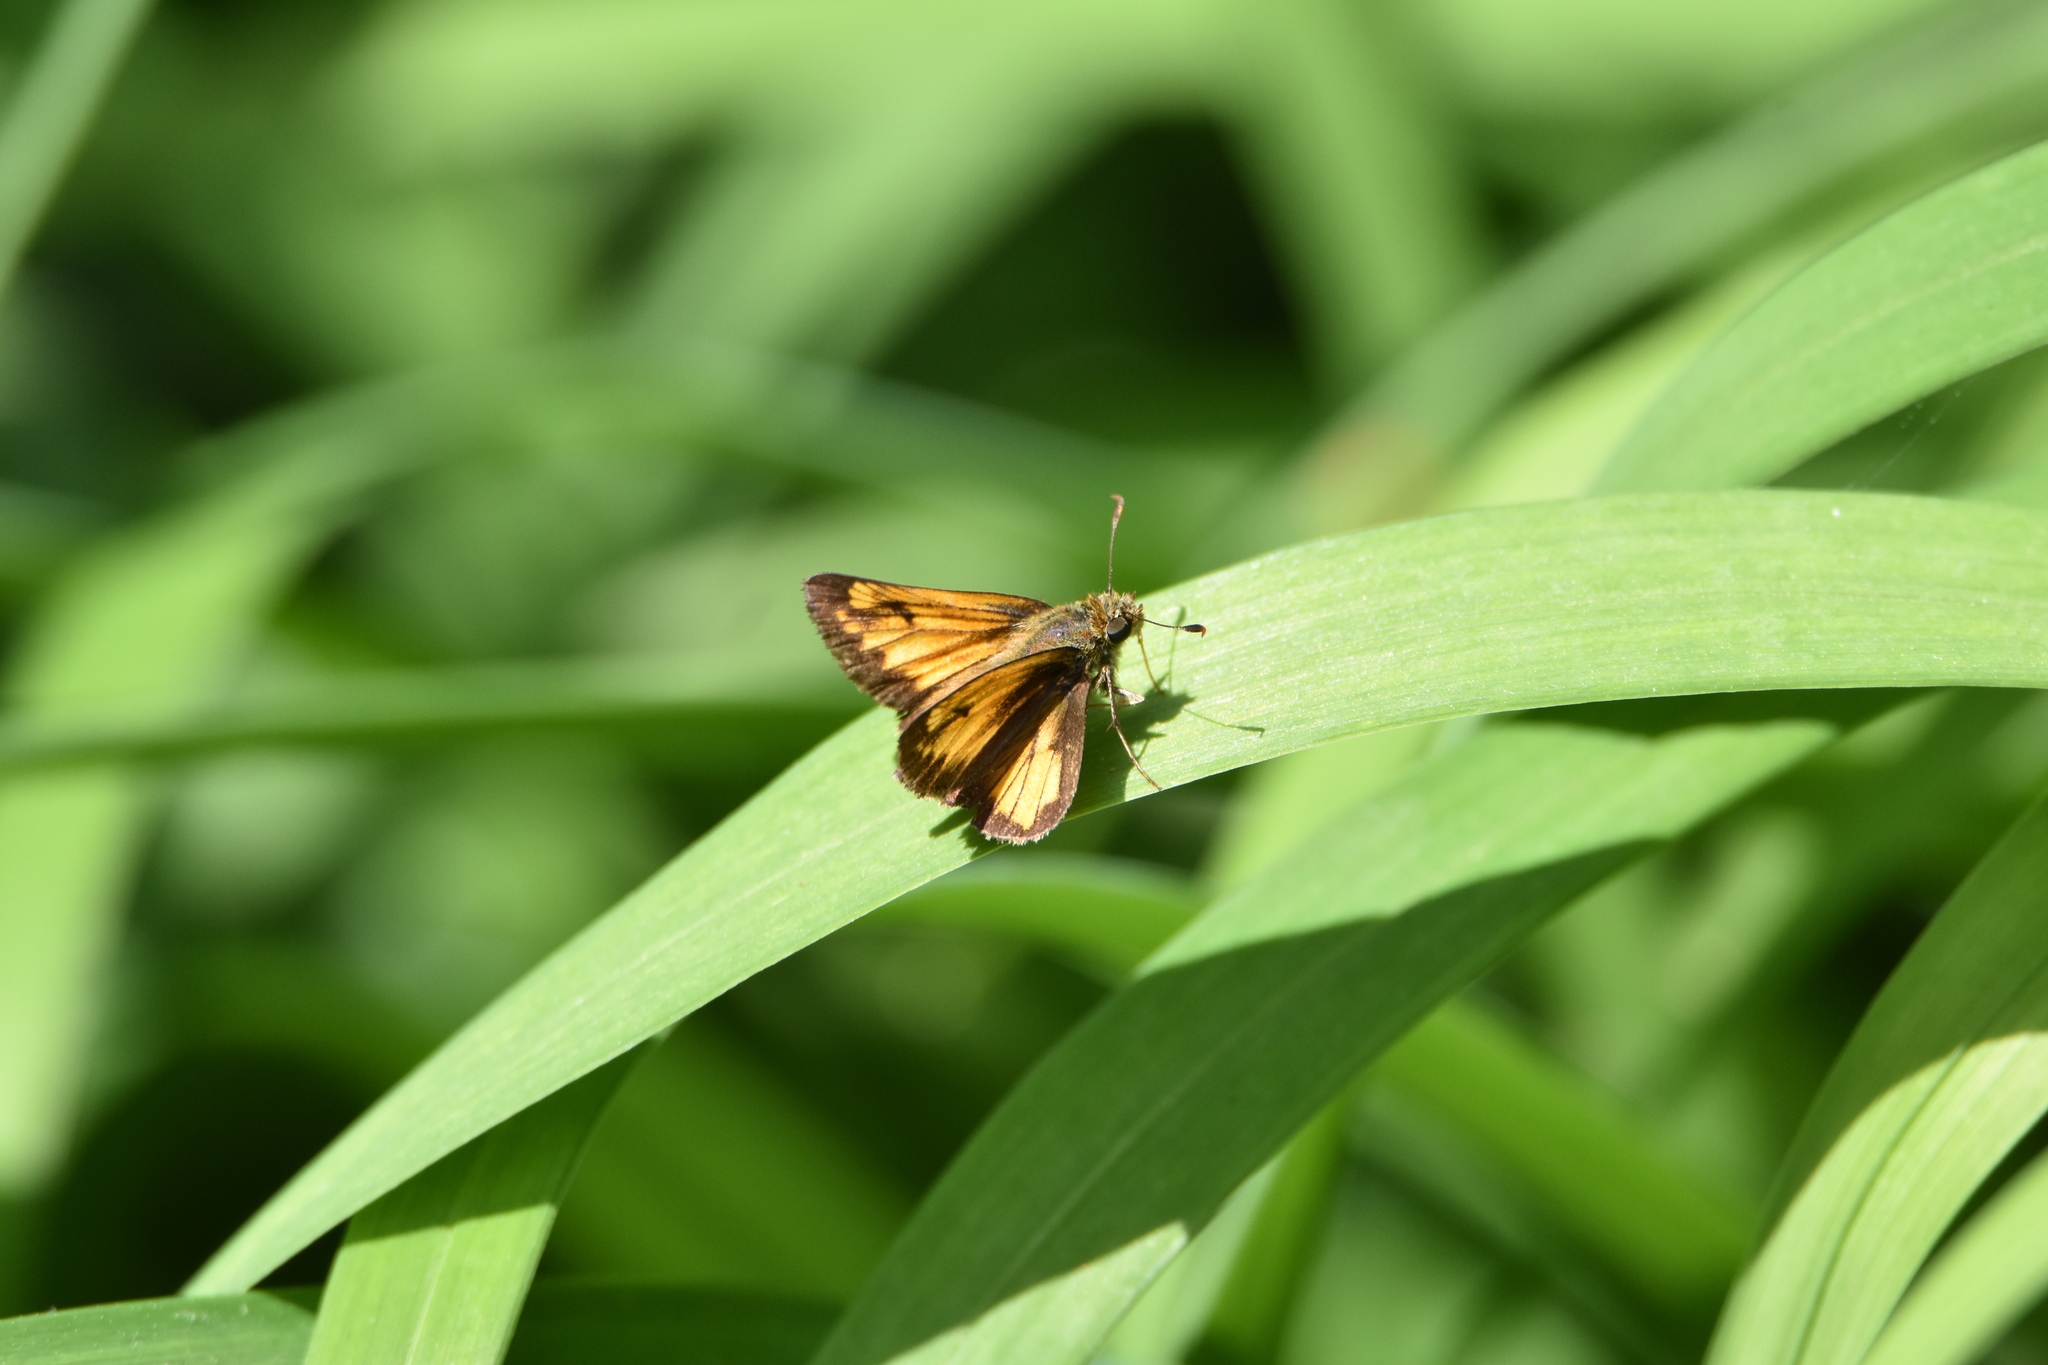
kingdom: Animalia
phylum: Arthropoda
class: Insecta
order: Lepidoptera
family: Hesperiidae
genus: Lon
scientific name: Lon hobomok
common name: Hobomok skipper
